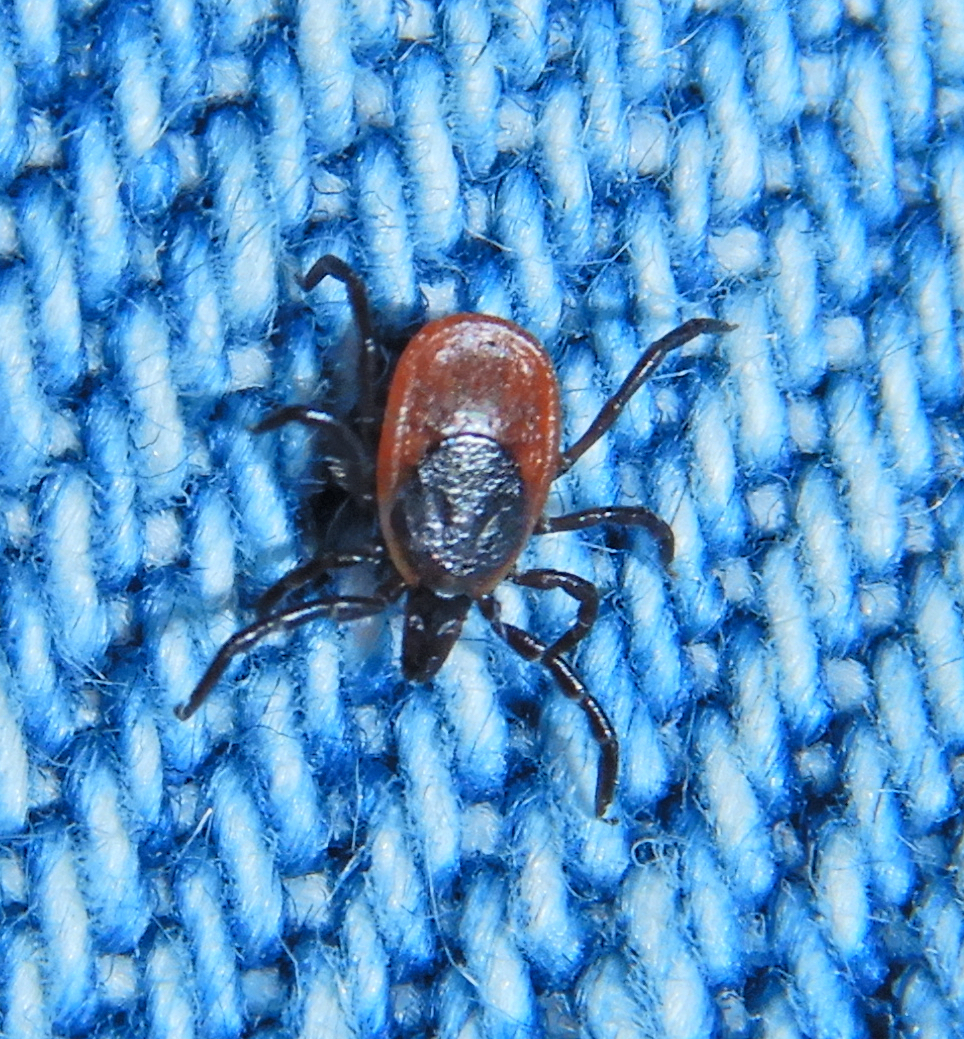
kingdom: Animalia
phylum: Arthropoda
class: Arachnida
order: Ixodida
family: Ixodidae
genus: Ixodes
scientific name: Ixodes scapularis
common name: Black legged tick
